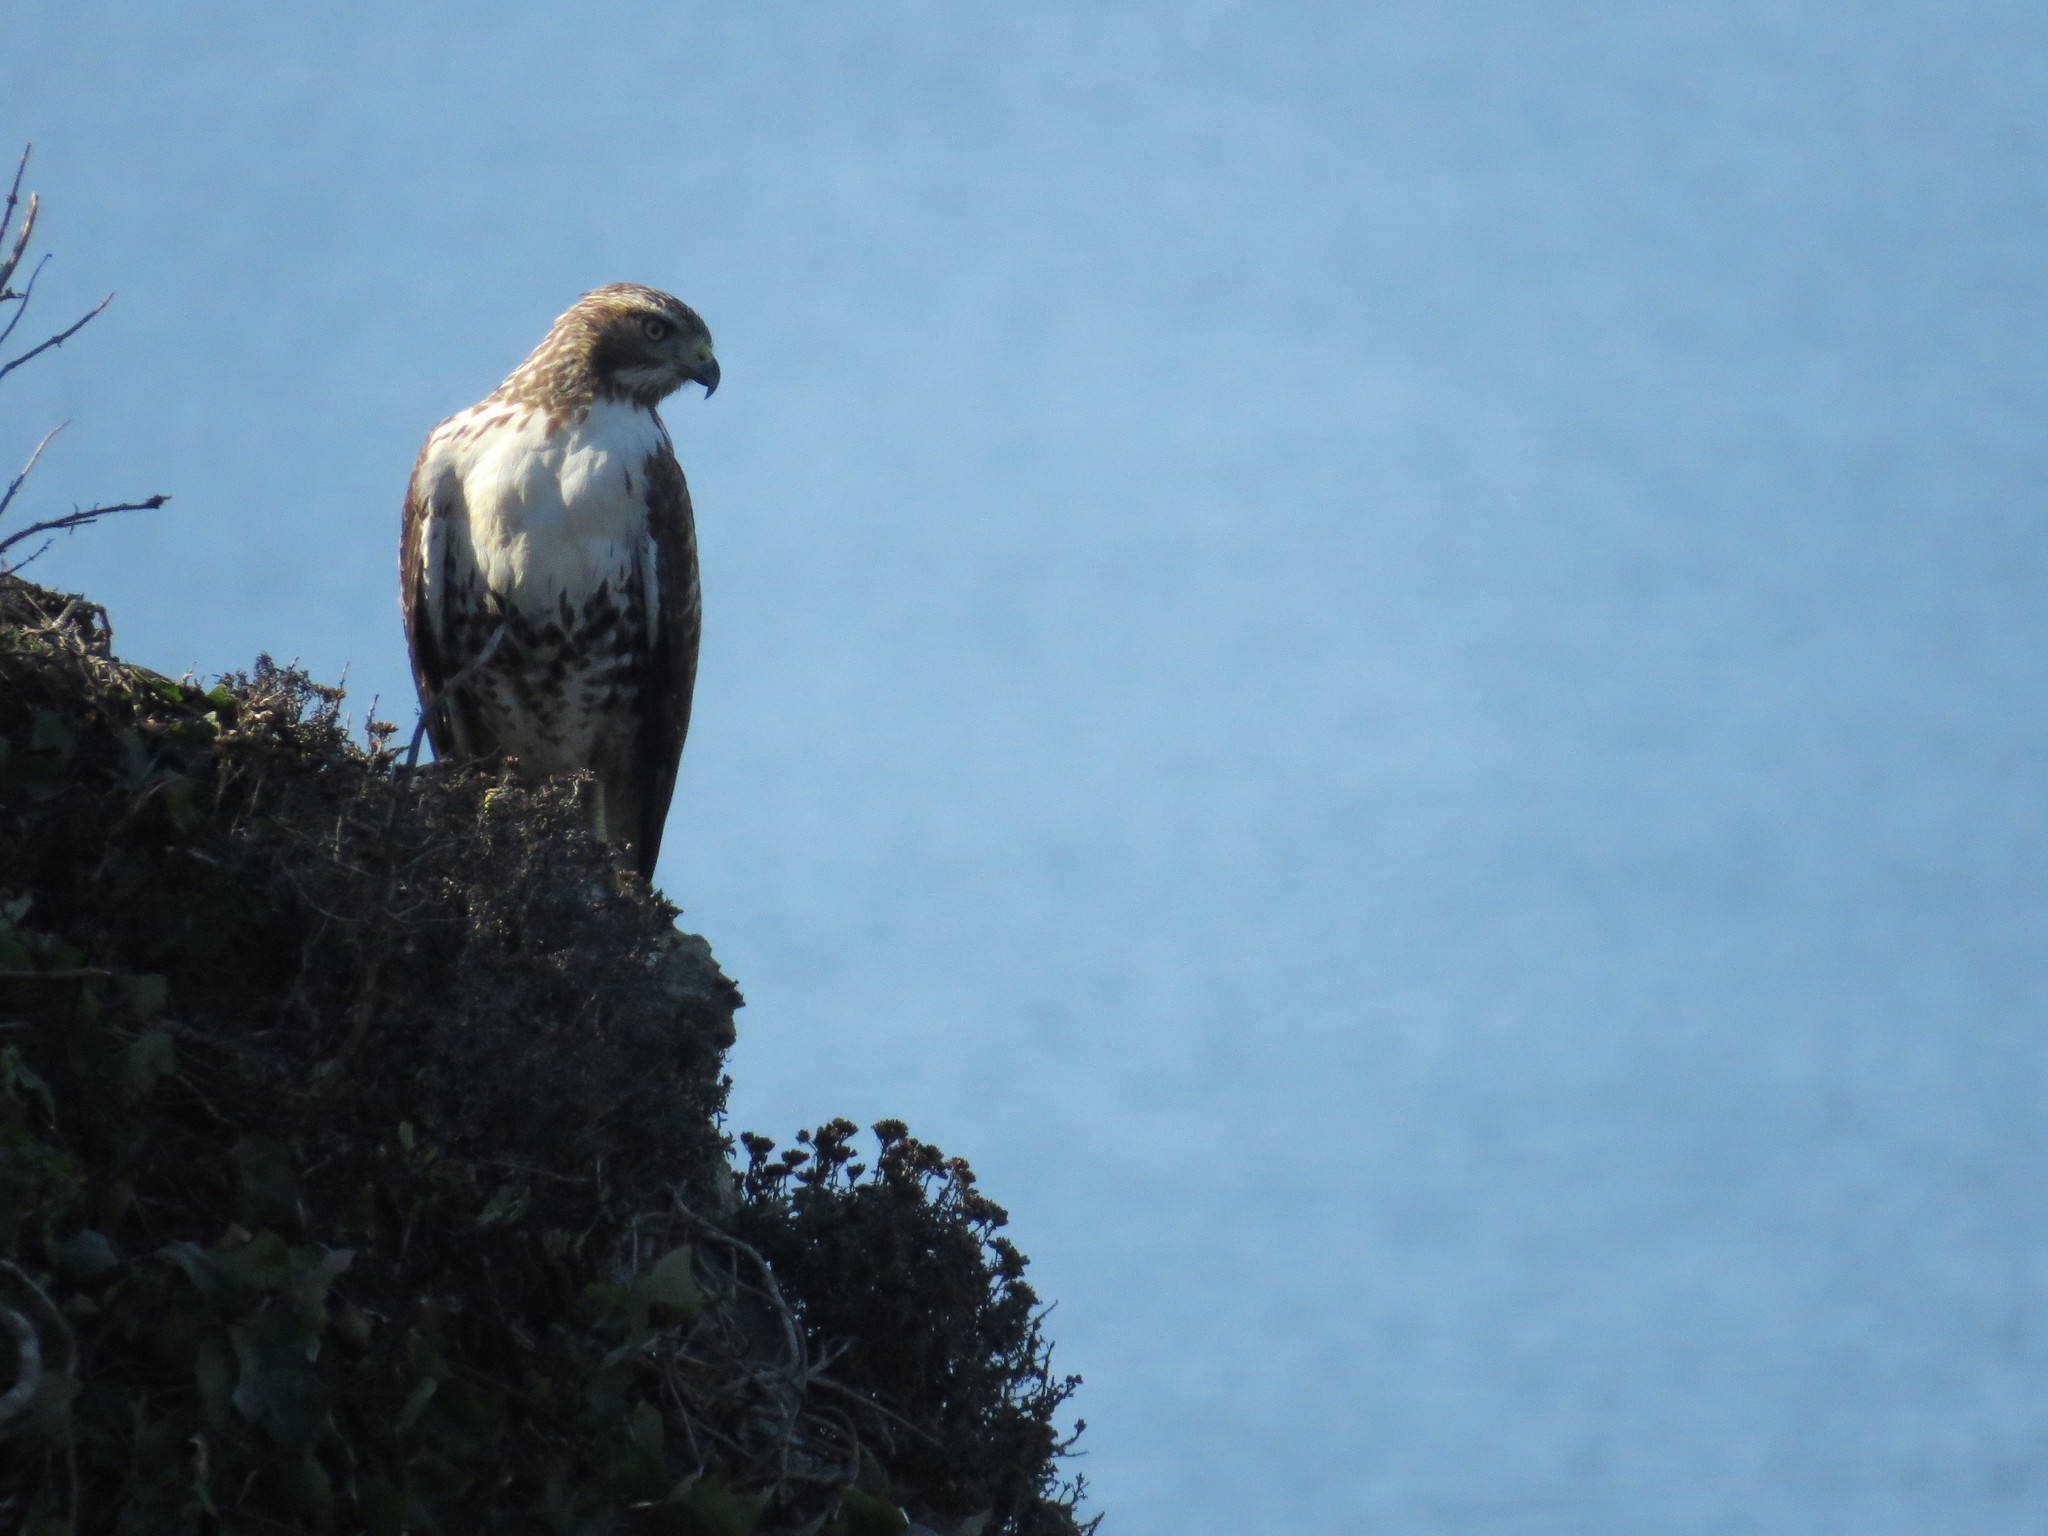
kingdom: Animalia
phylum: Chordata
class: Aves
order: Accipitriformes
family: Accipitridae
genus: Buteo
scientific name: Buteo jamaicensis
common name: Red-tailed hawk
